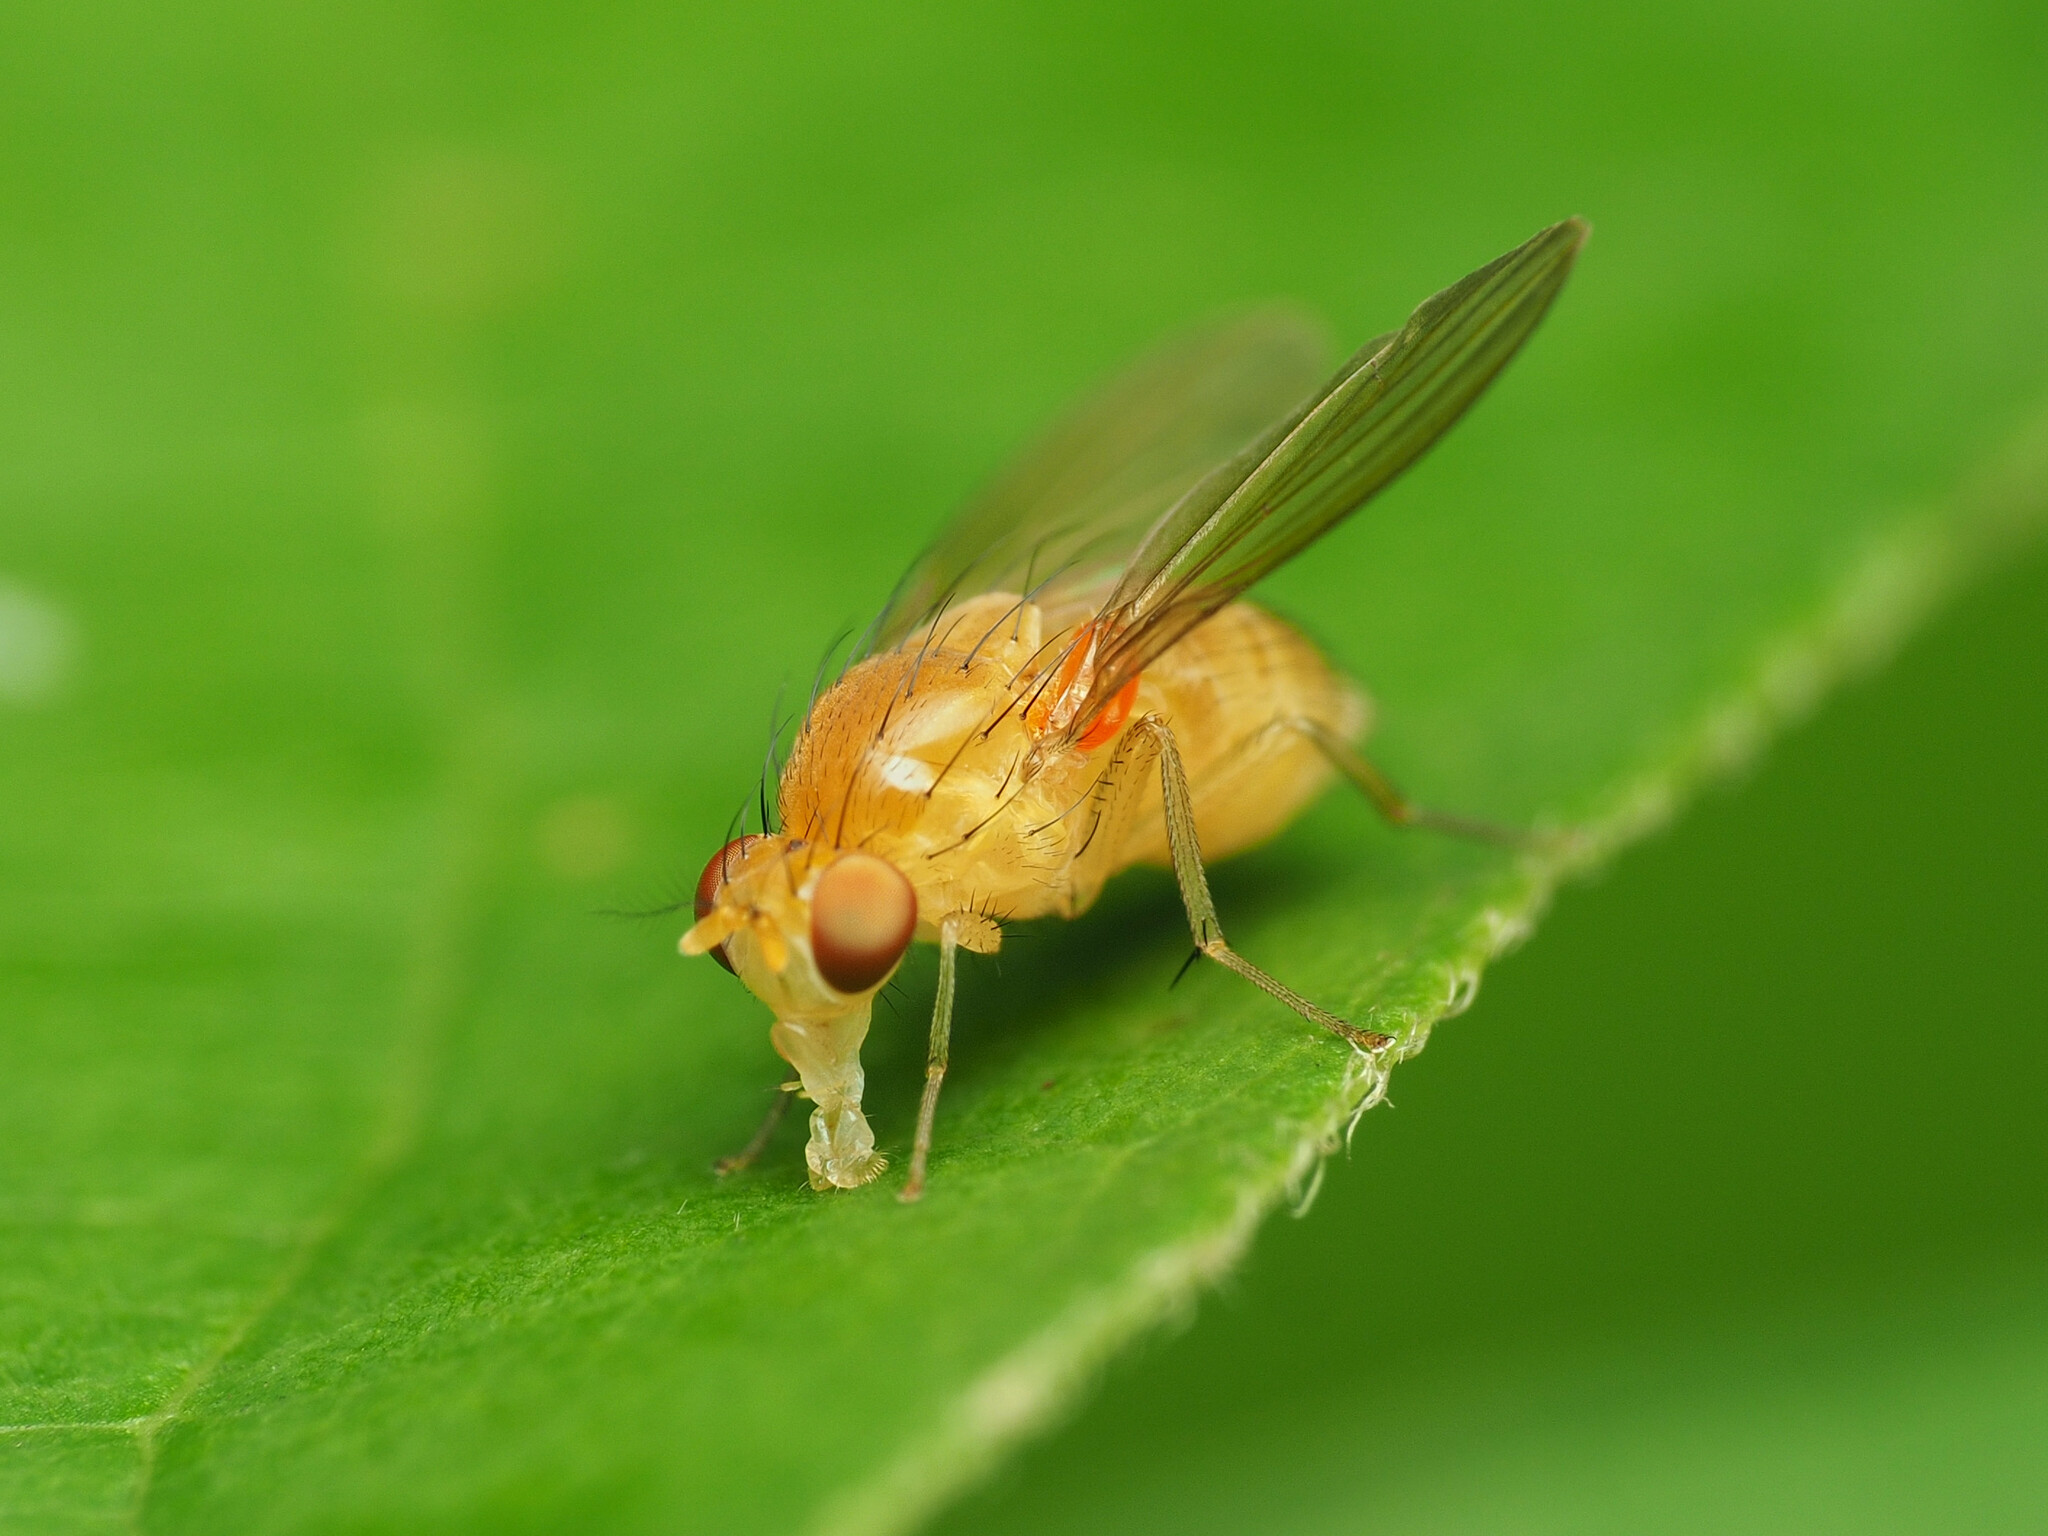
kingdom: Animalia
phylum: Arthropoda
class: Insecta
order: Diptera
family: Lauxaniidae
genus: Neogriphoneura
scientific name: Neogriphoneura sordida
